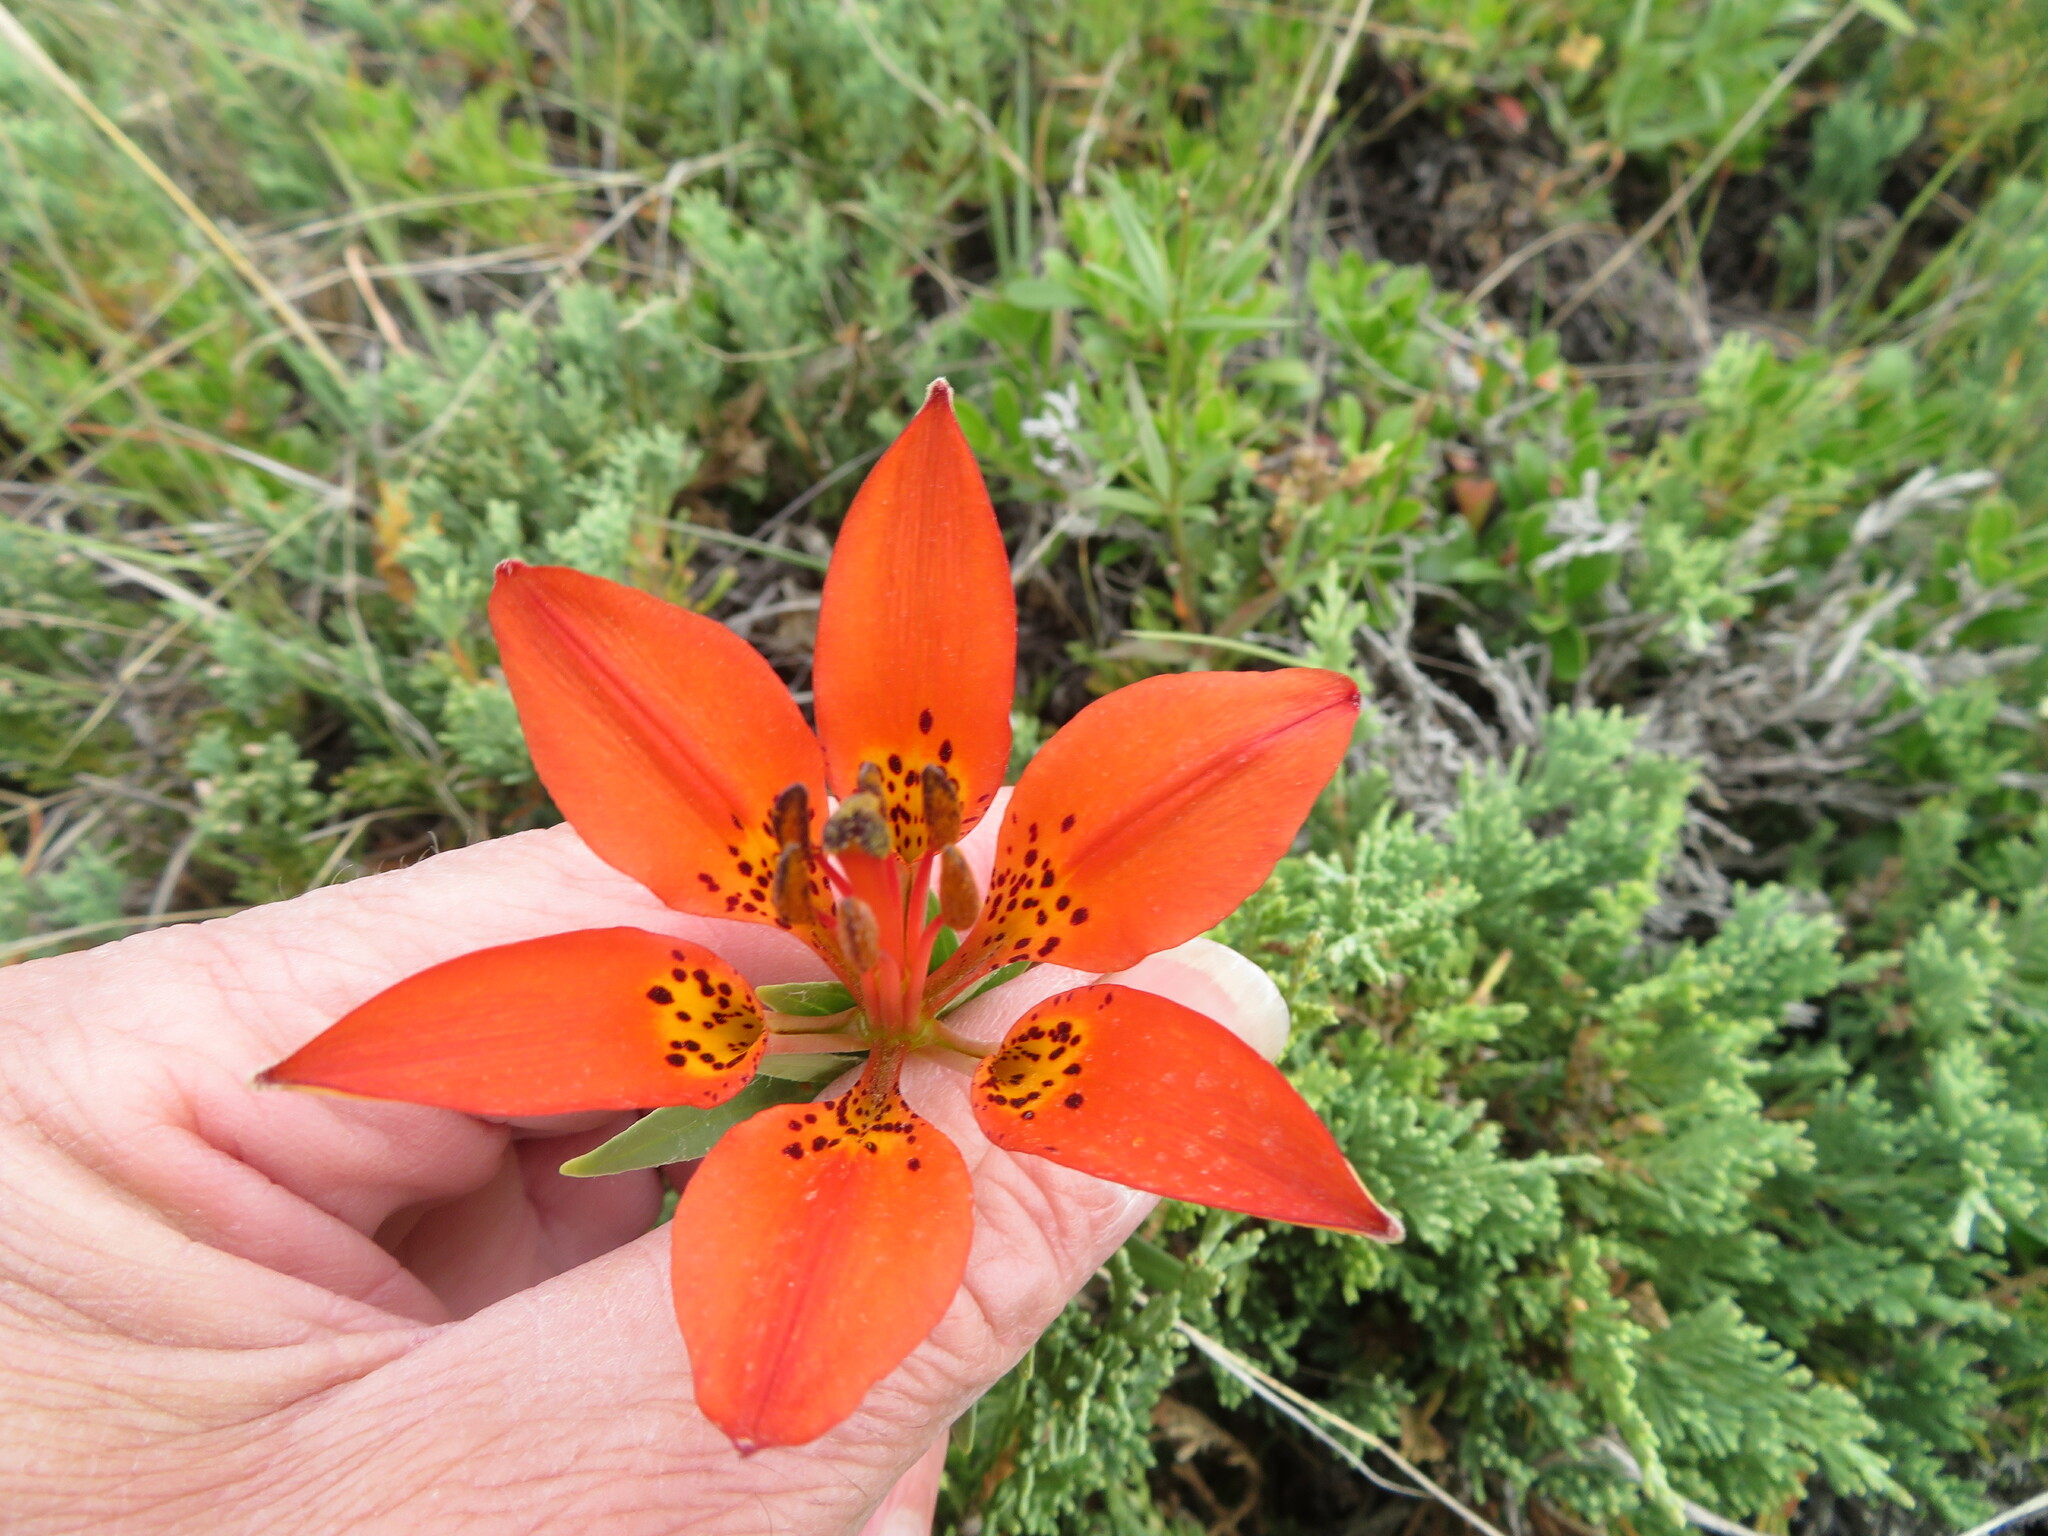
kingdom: Plantae
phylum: Tracheophyta
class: Liliopsida
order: Liliales
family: Liliaceae
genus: Lilium
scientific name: Lilium philadelphicum
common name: Red lily
